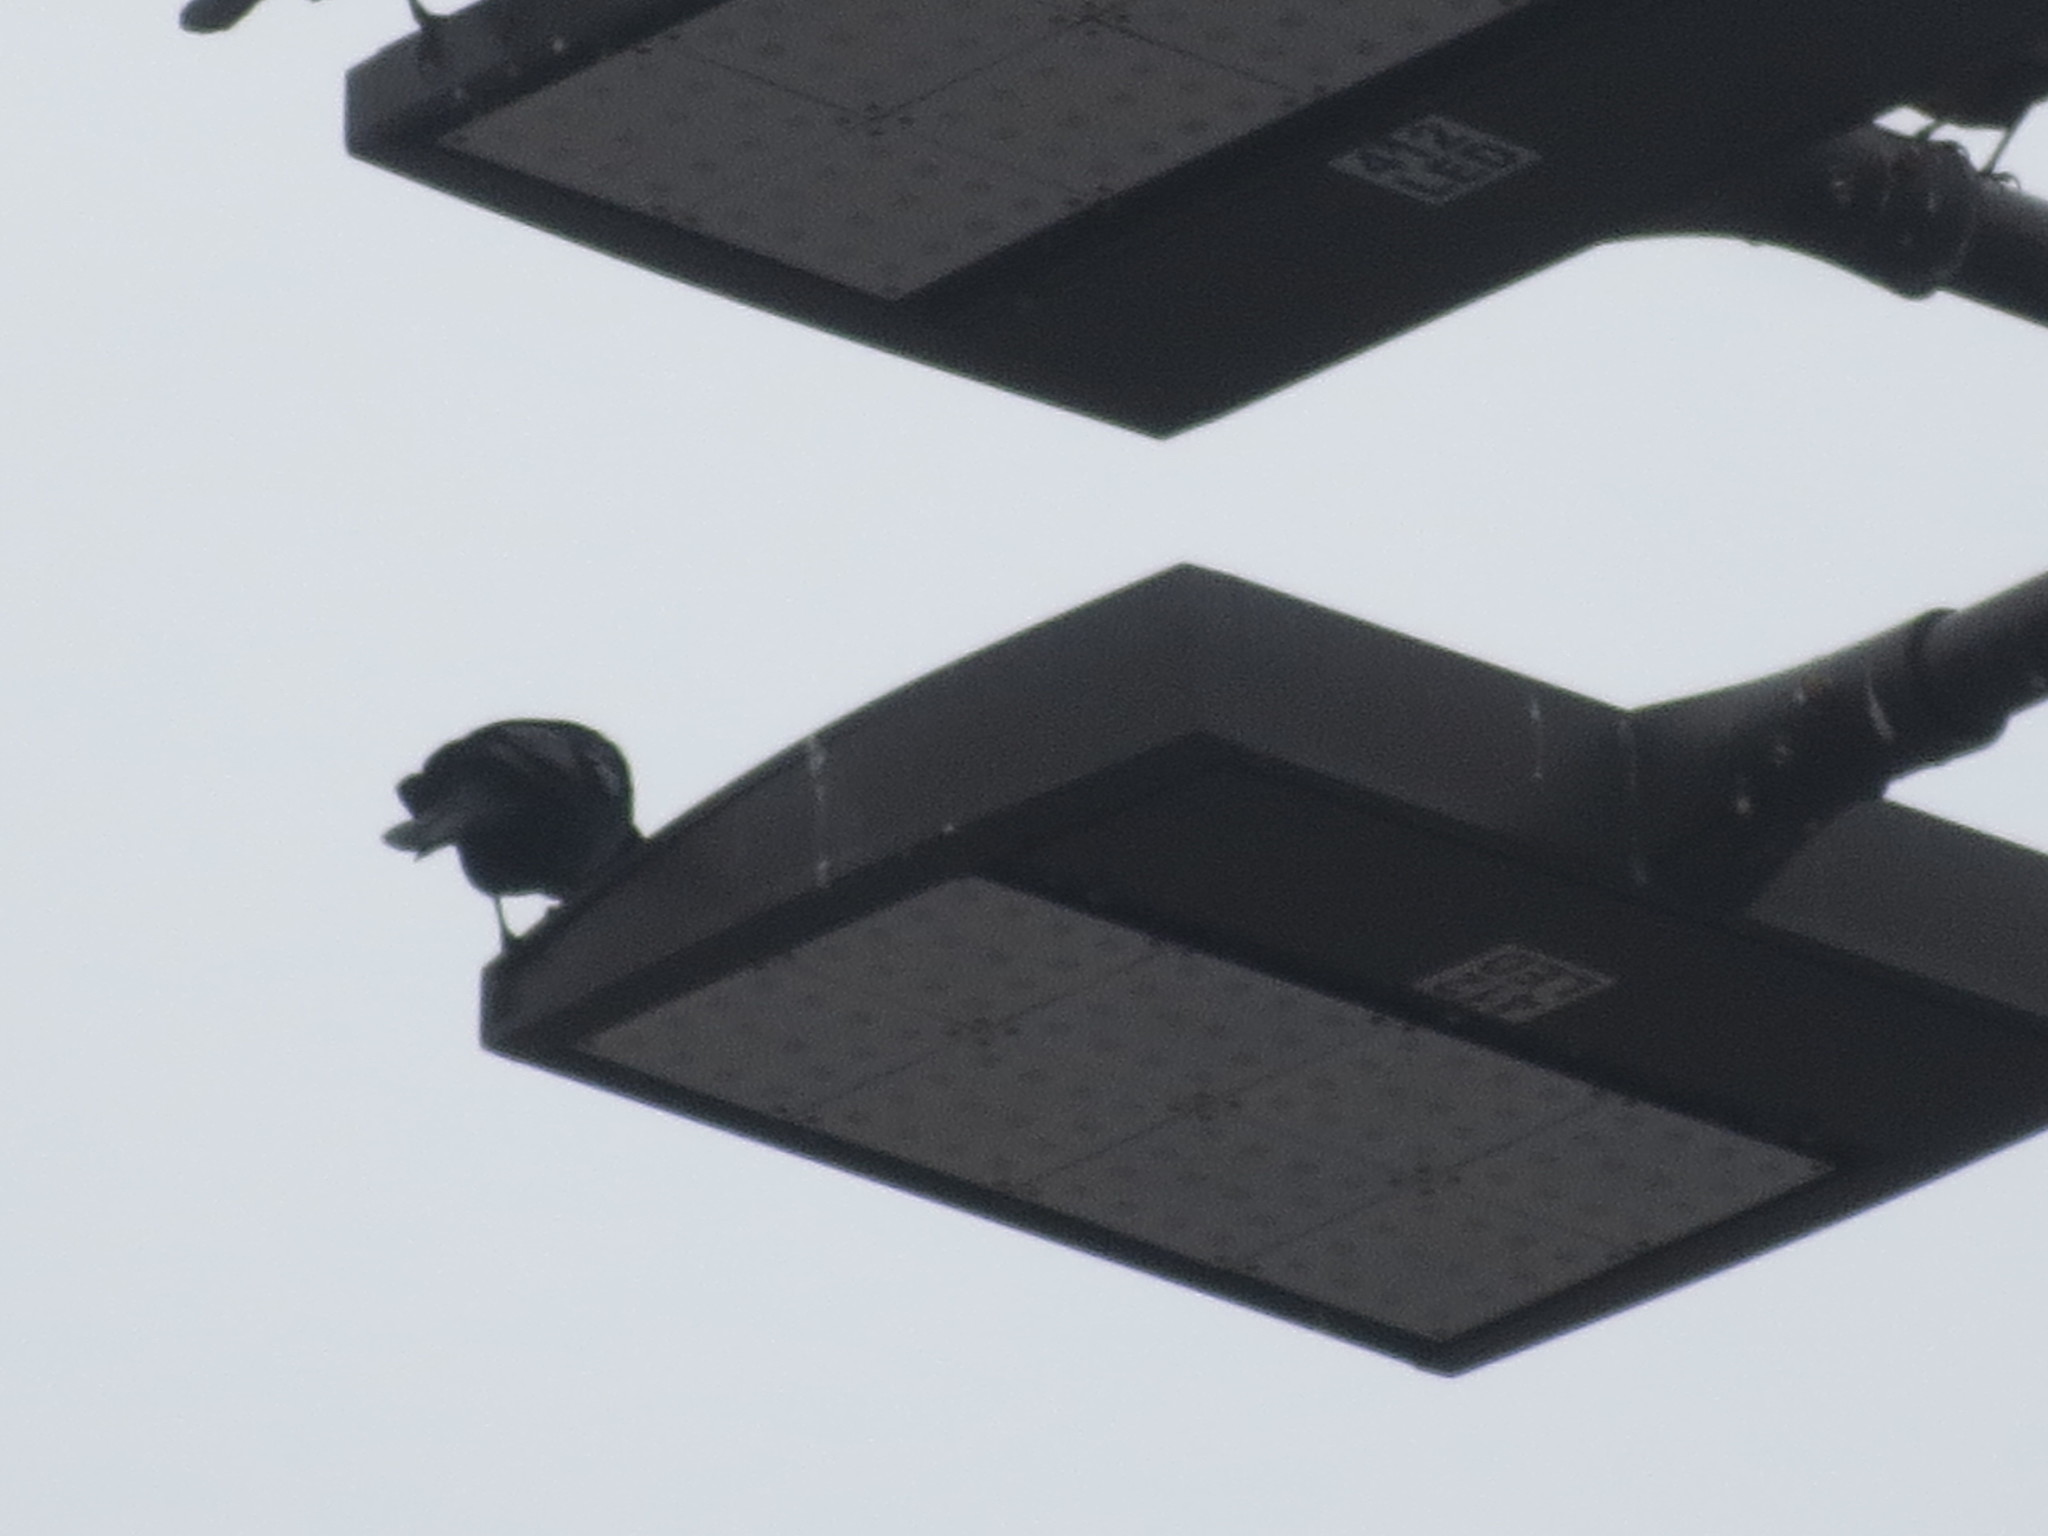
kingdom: Animalia
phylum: Chordata
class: Aves
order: Passeriformes
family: Icteridae
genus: Quiscalus
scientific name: Quiscalus major
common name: Boat-tailed grackle
